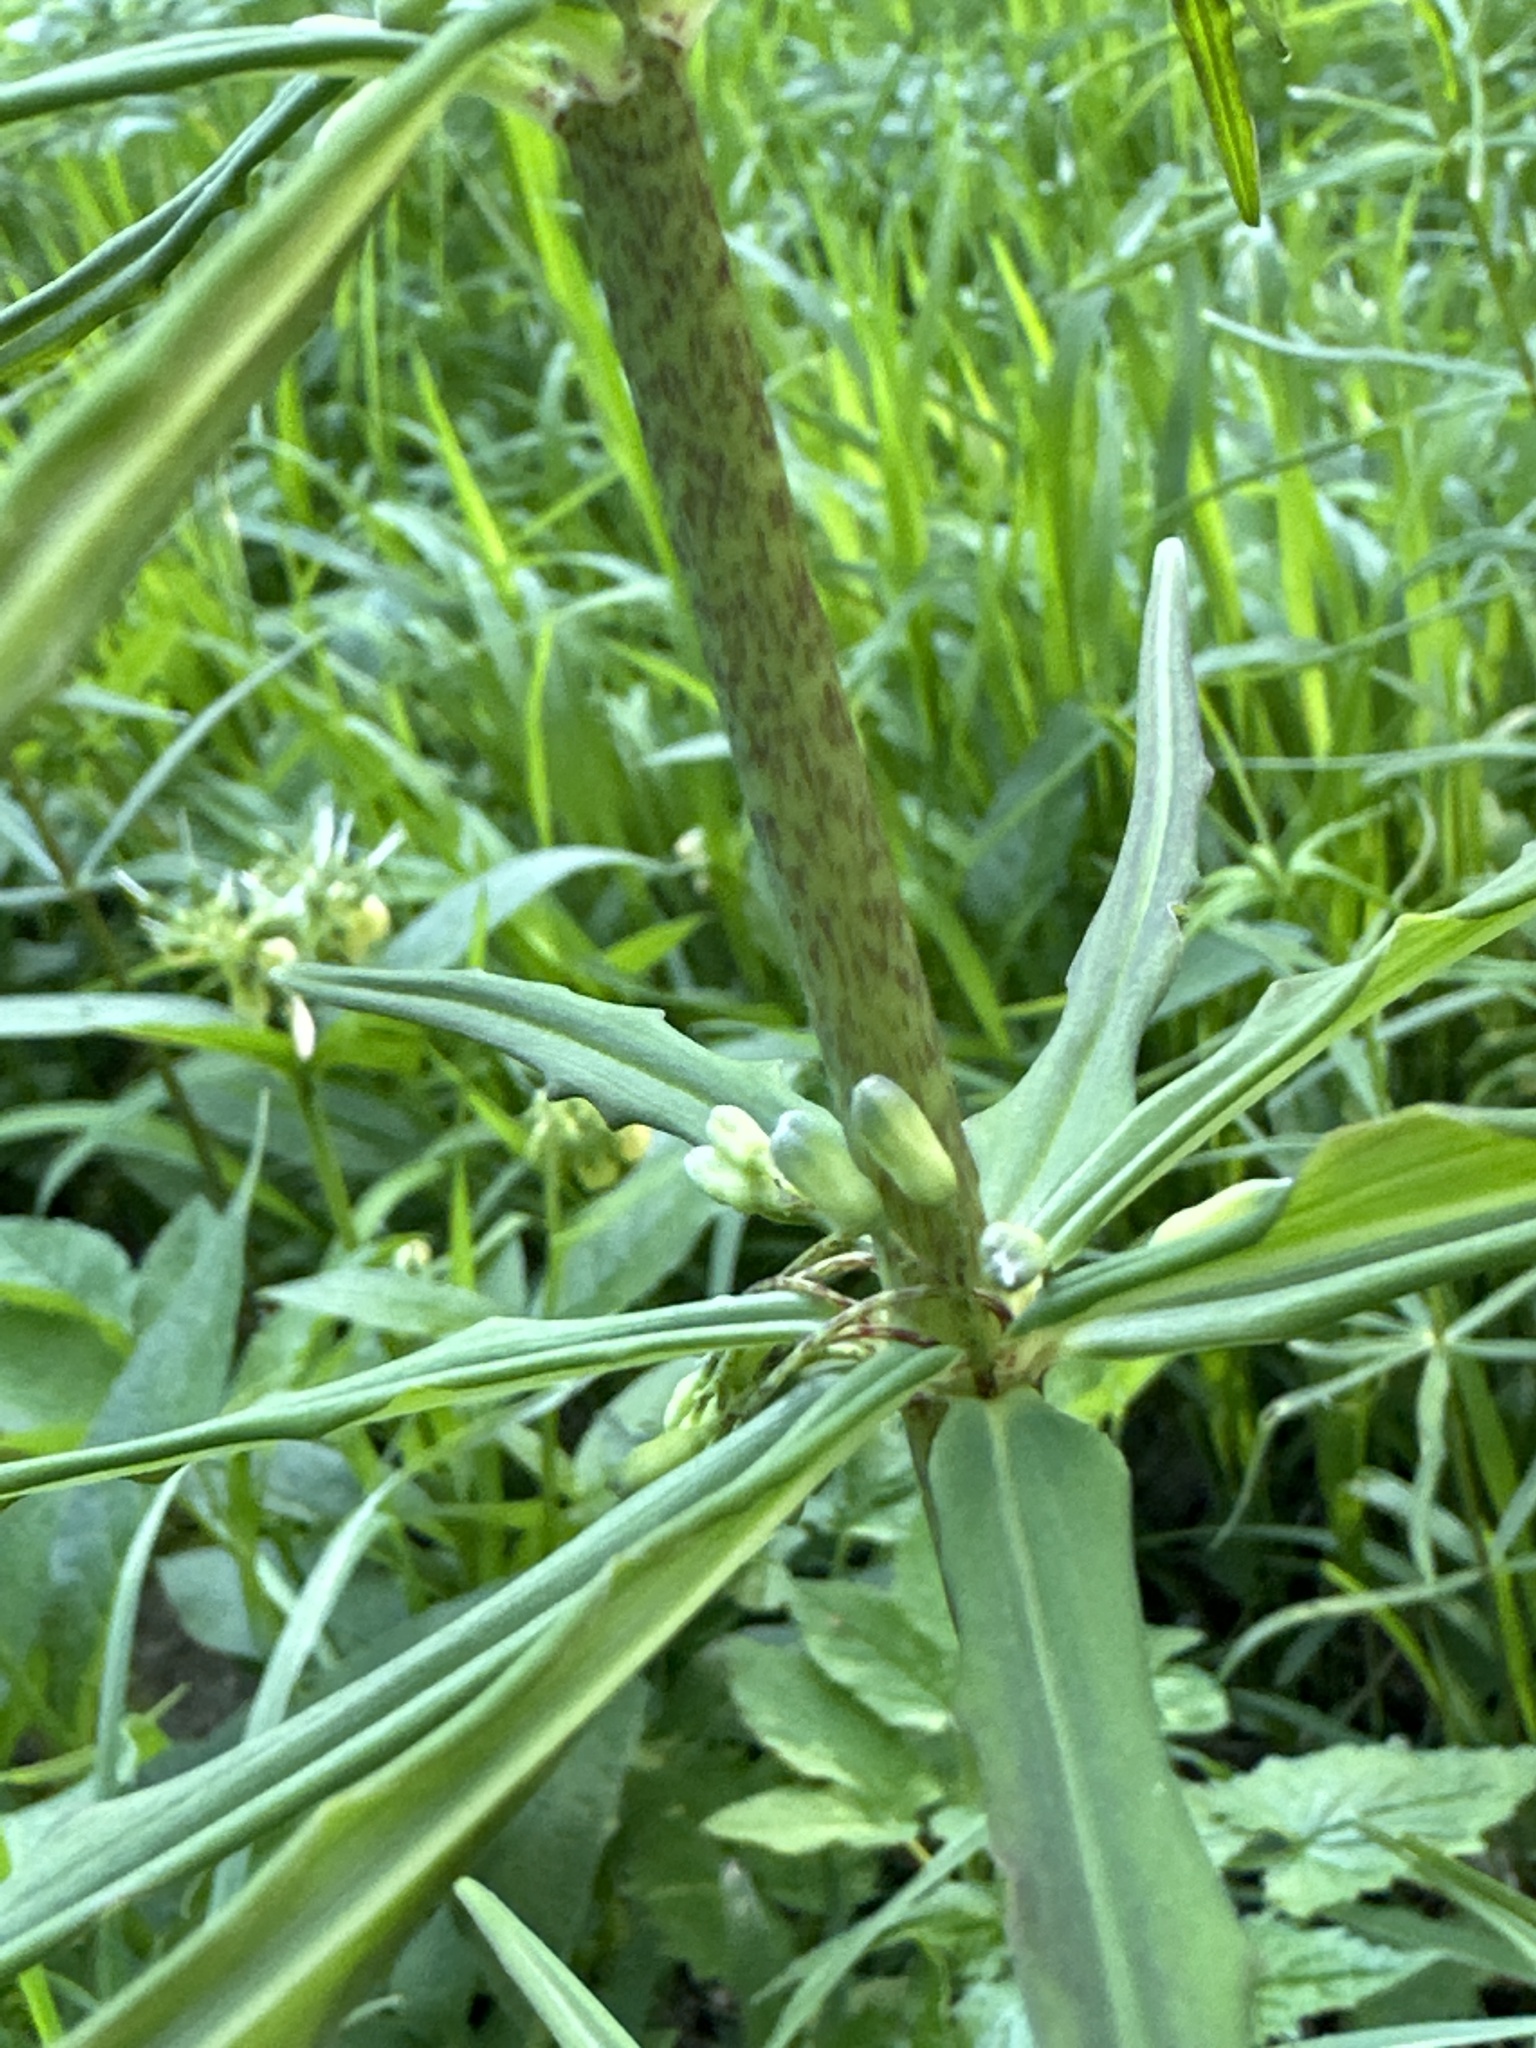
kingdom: Plantae
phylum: Tracheophyta
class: Liliopsida
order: Asparagales
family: Asparagaceae
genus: Polygonatum
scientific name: Polygonatum verticillatum
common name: Whorled solomon's-seal
